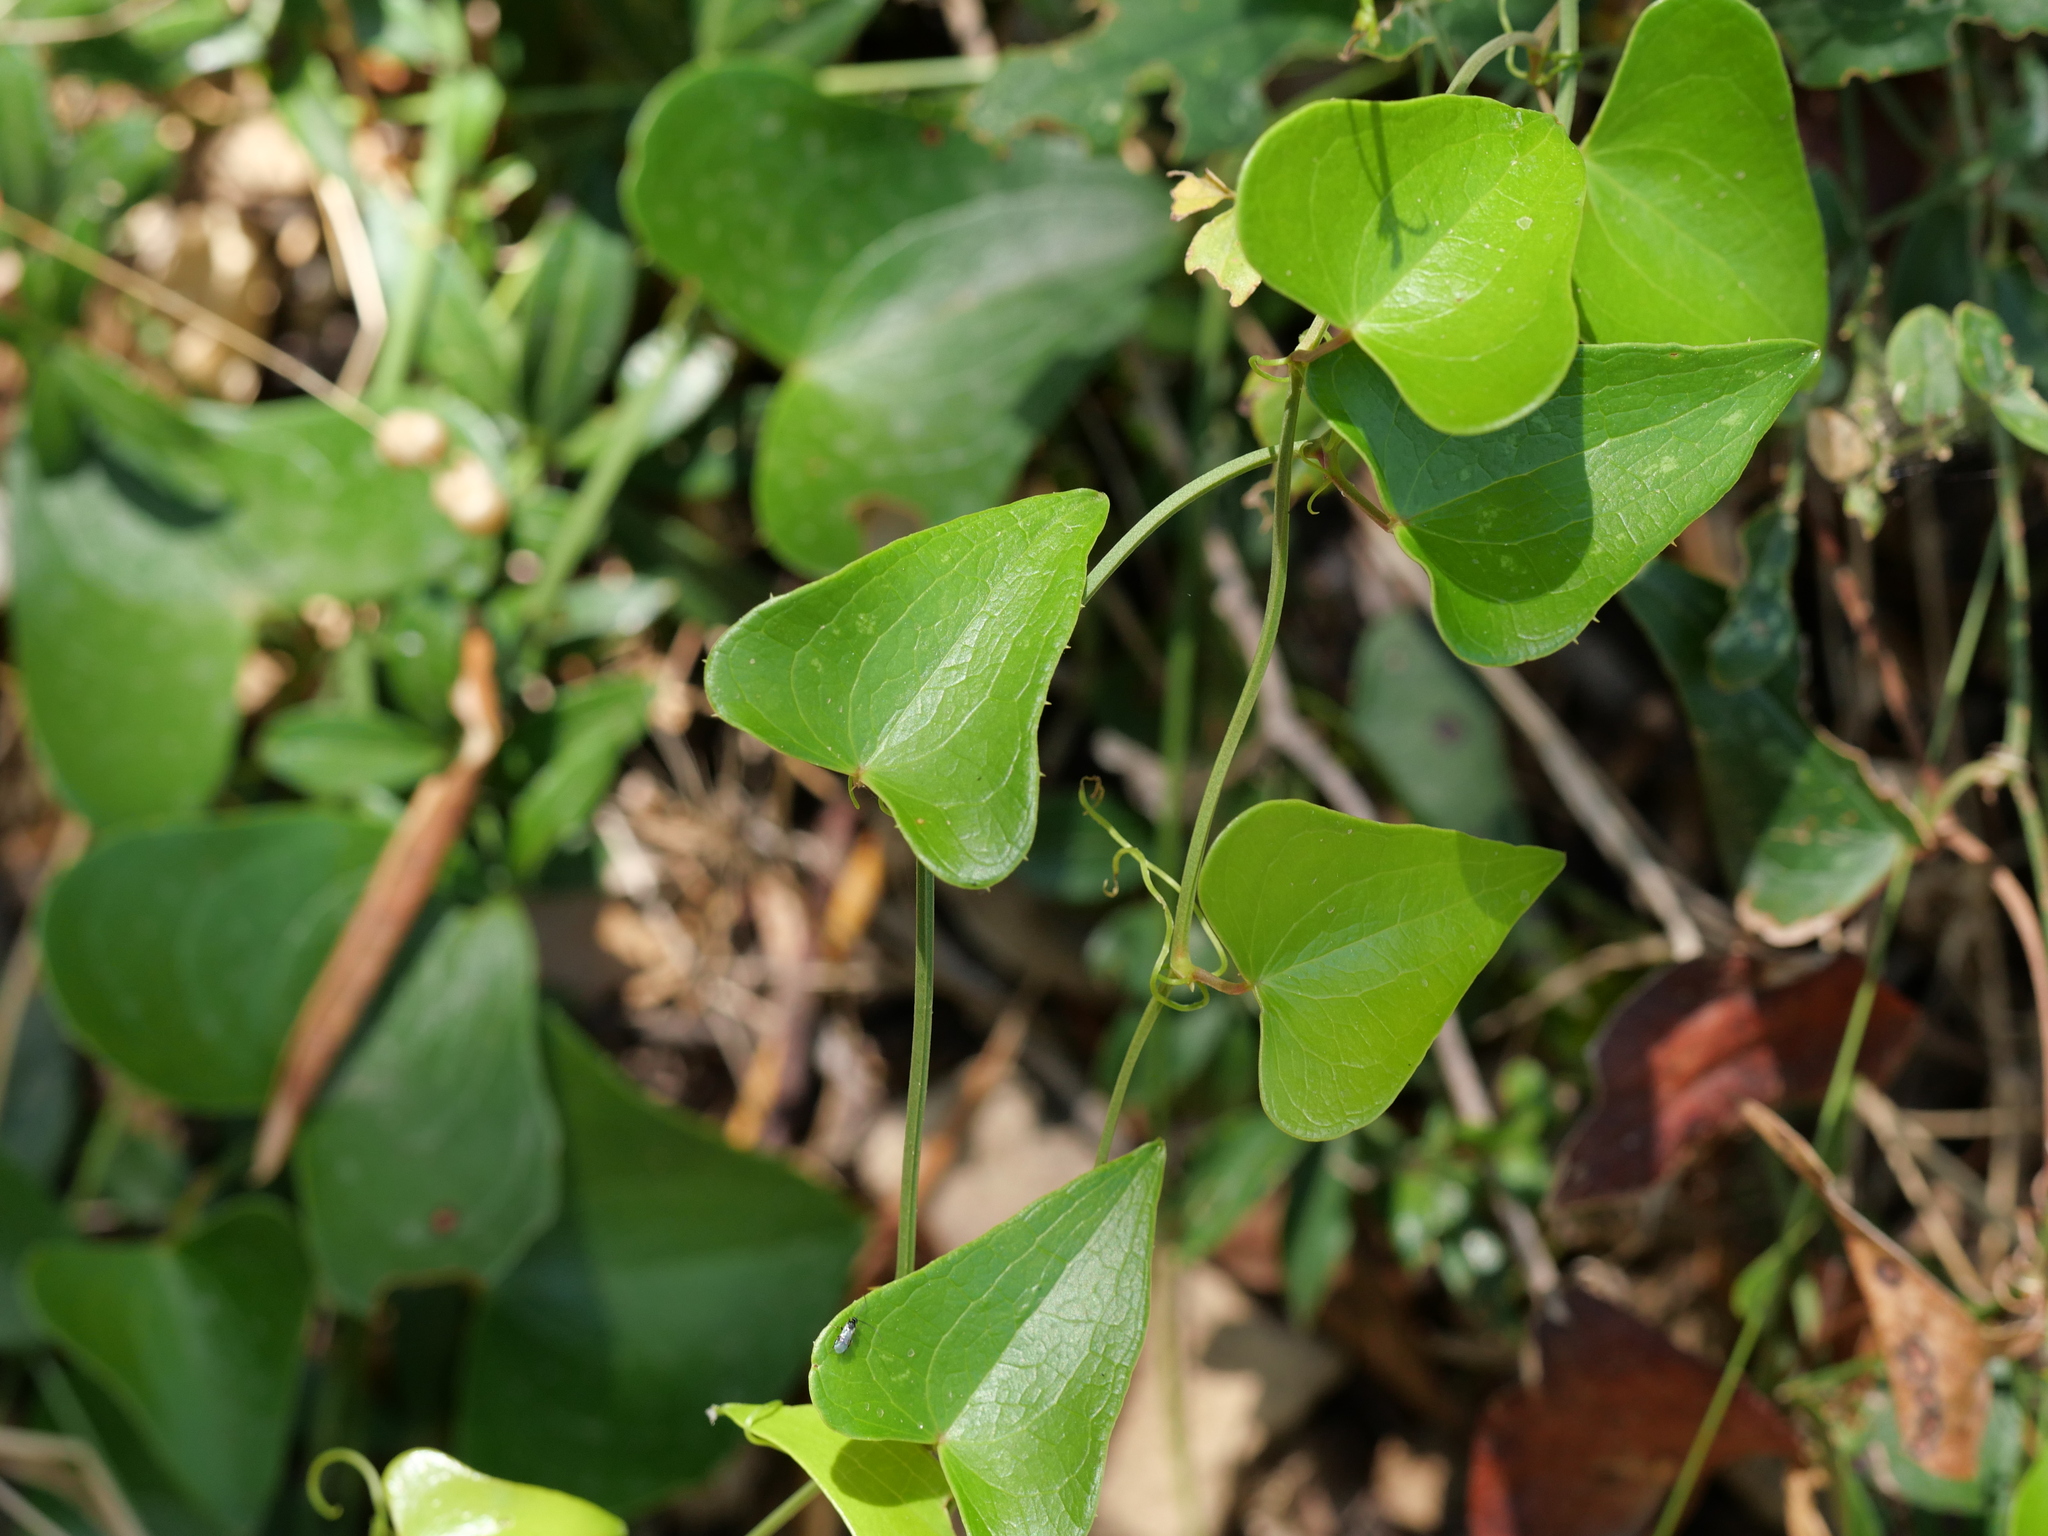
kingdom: Plantae
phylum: Tracheophyta
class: Liliopsida
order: Liliales
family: Smilacaceae
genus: Smilax
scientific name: Smilax aspera
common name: Common smilax
